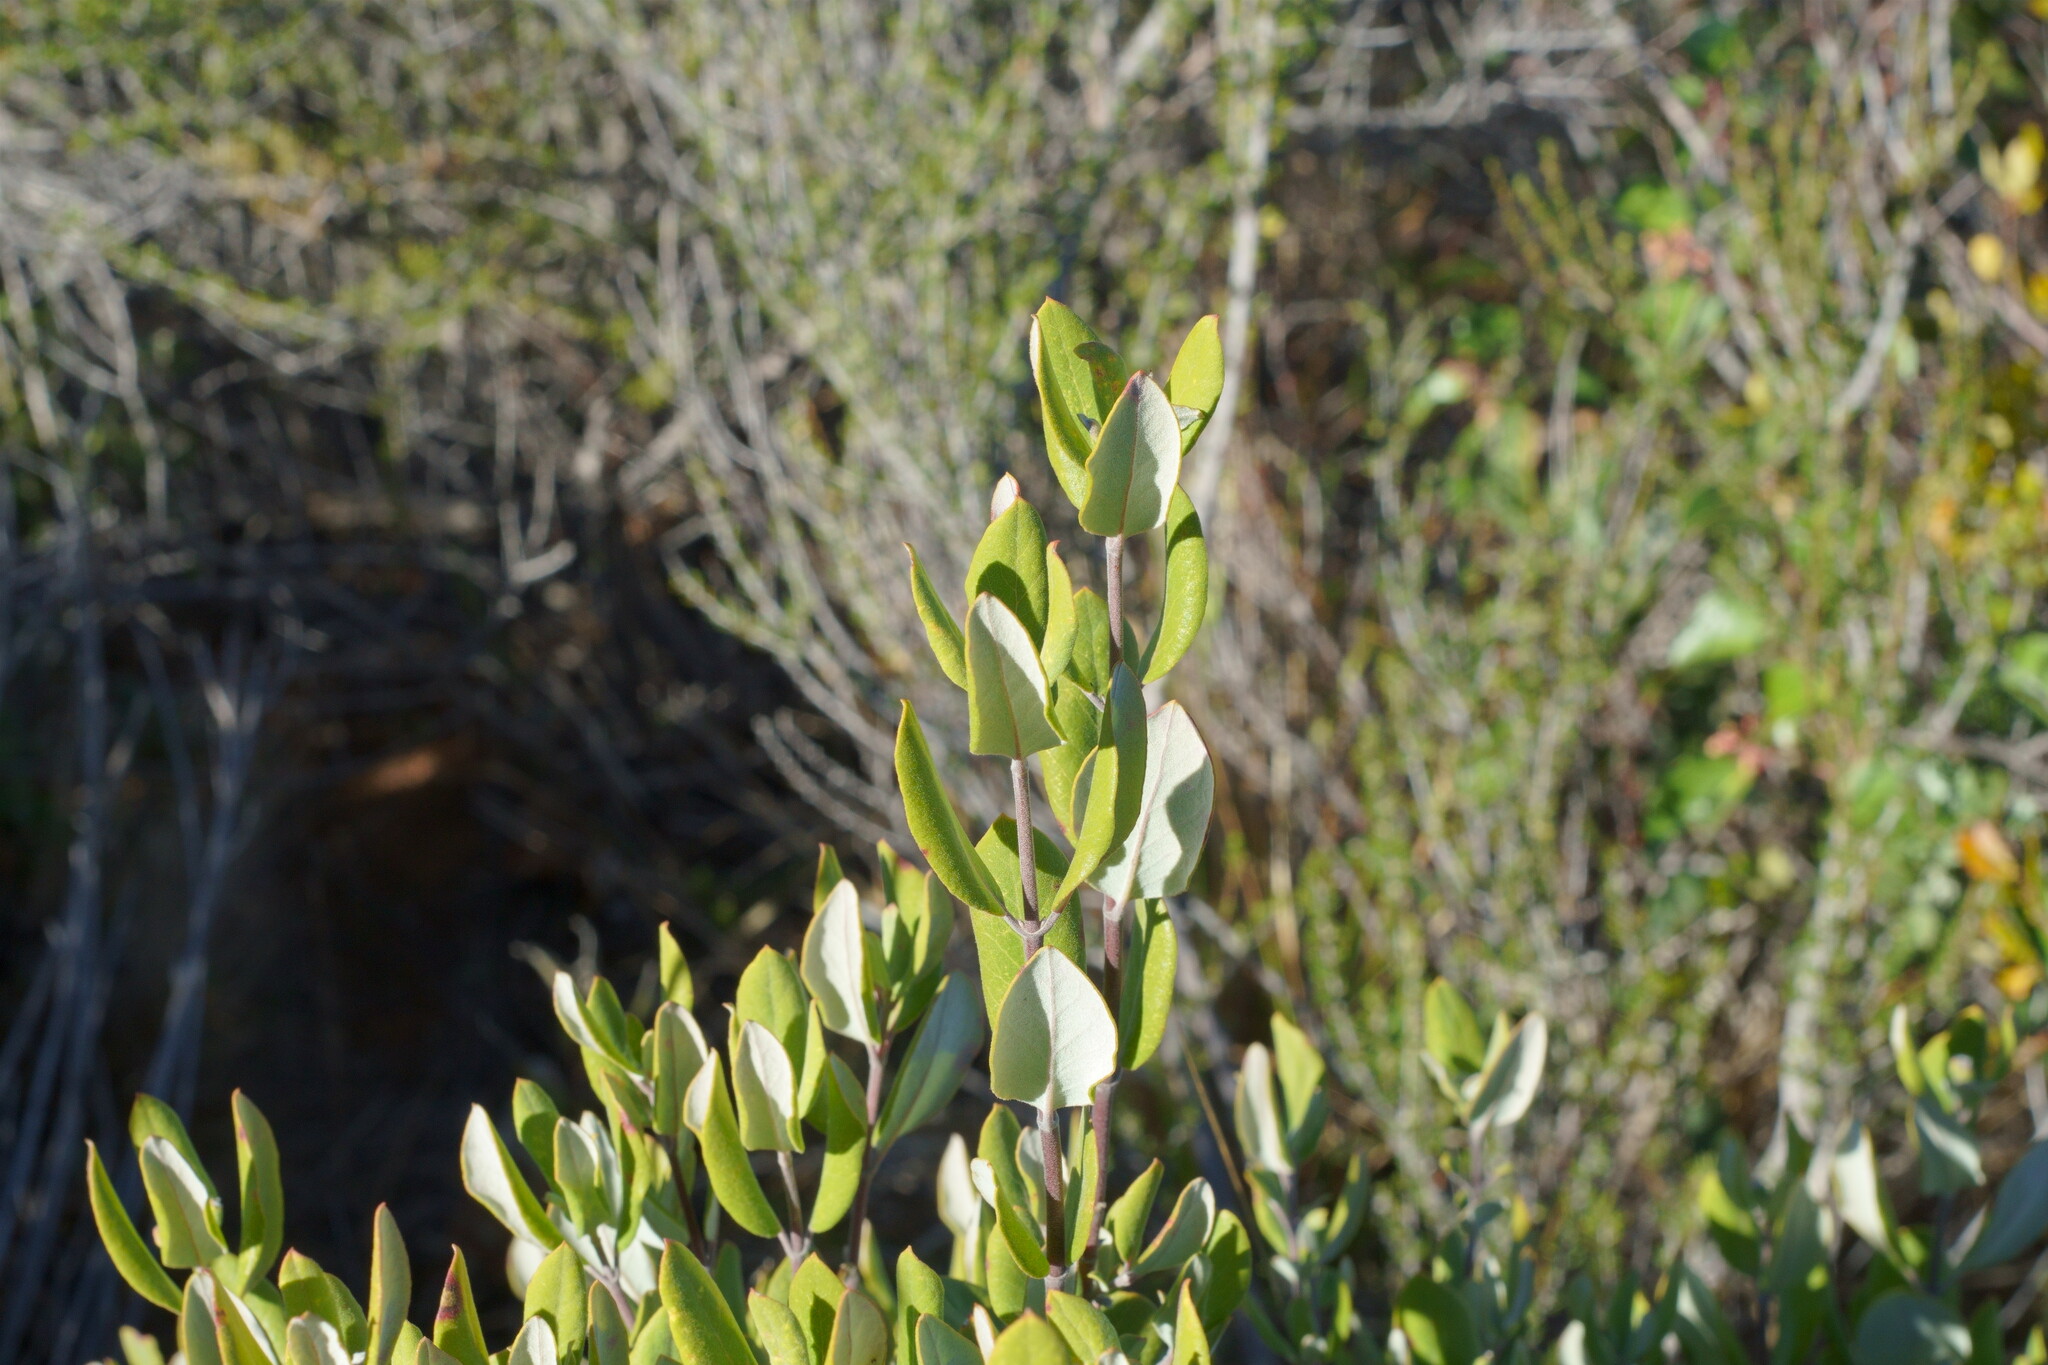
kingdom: Plantae
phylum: Tracheophyta
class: Magnoliopsida
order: Garryales
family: Garryaceae
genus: Garrya
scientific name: Garrya veatchii
